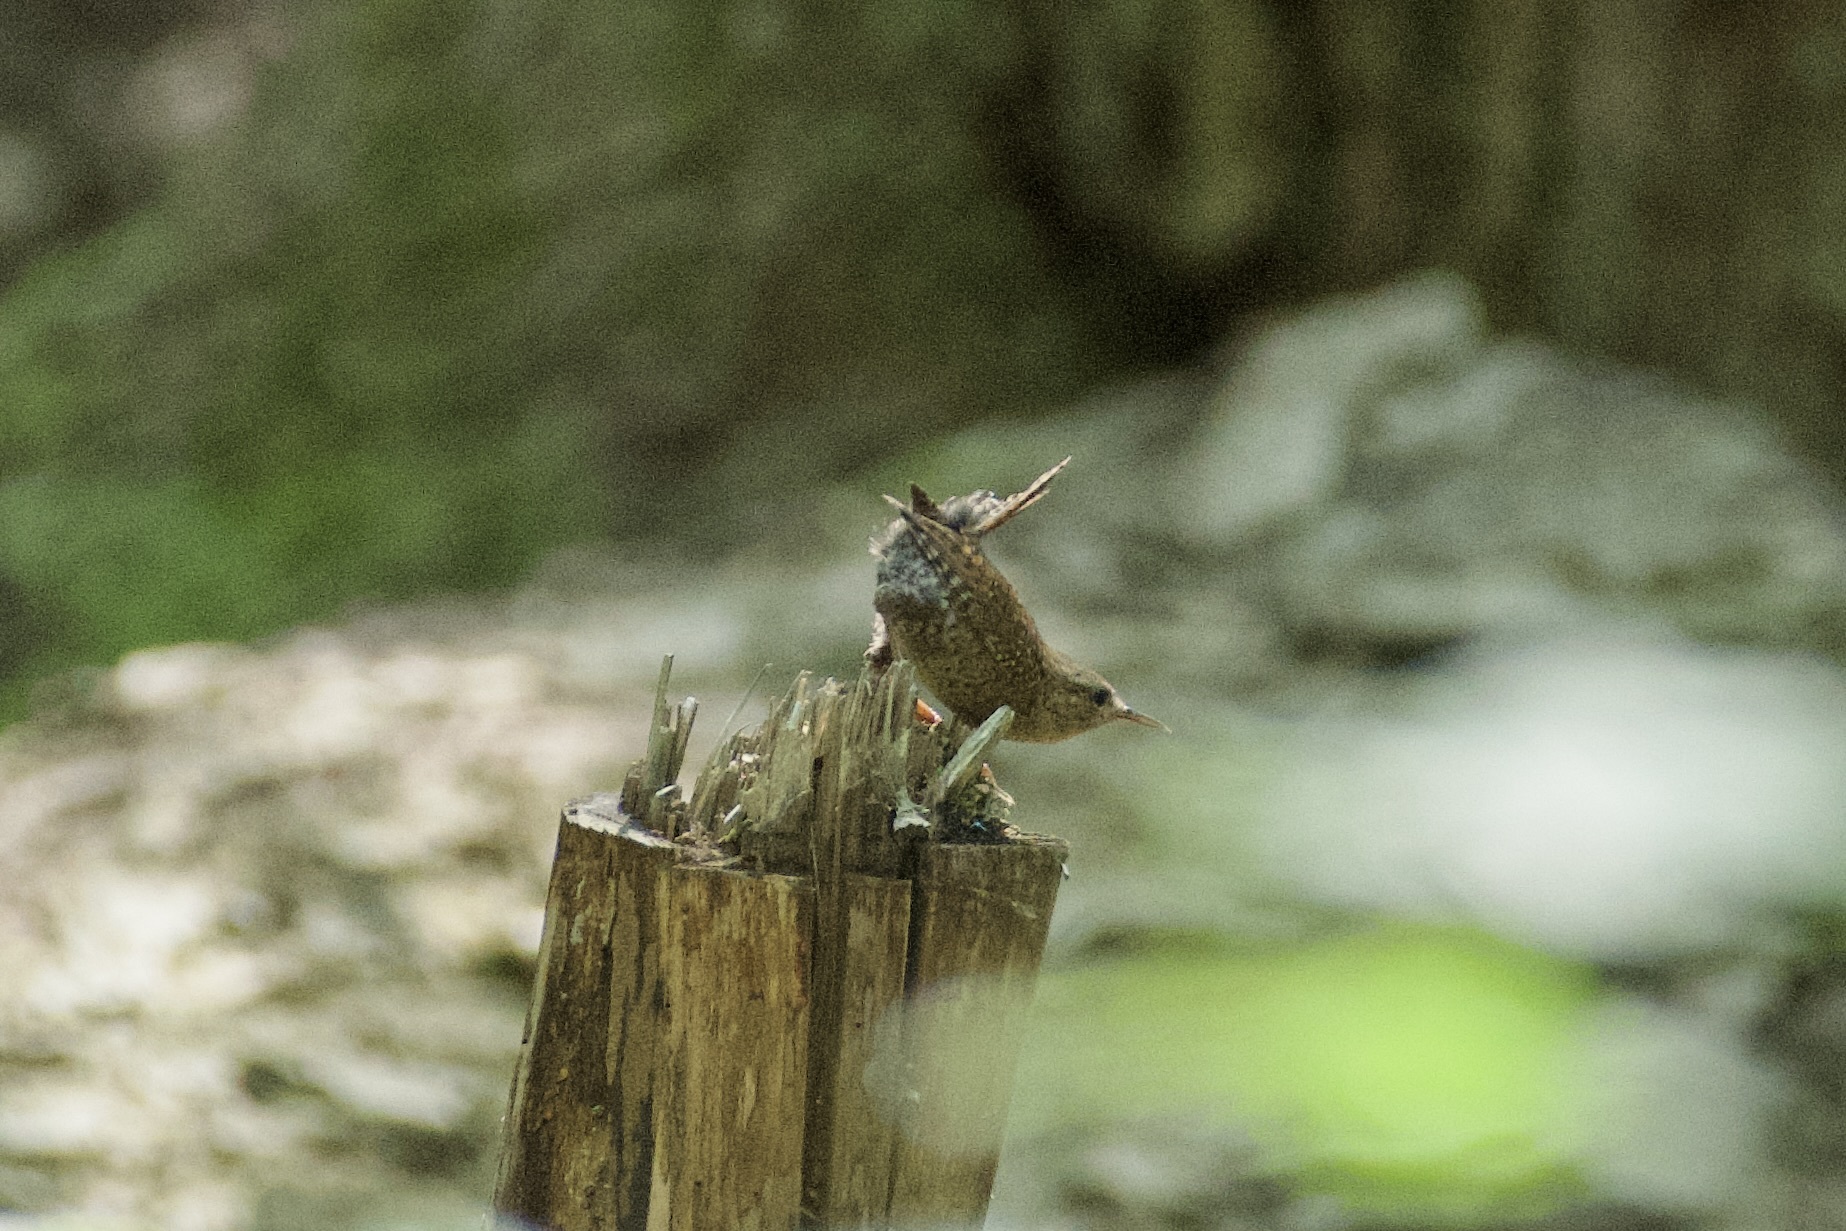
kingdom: Animalia
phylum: Chordata
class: Aves
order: Passeriformes
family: Troglodytidae
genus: Troglodytes
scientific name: Troglodytes hiemalis
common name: Winter wren
